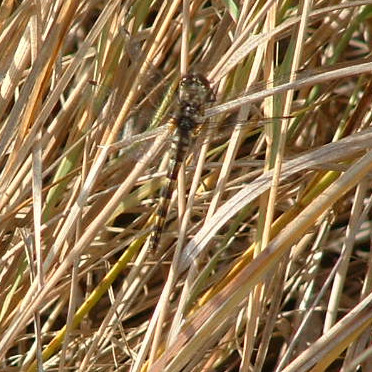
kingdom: Animalia
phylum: Arthropoda
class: Insecta
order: Odonata
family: Libellulidae
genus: Sympetrum
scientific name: Sympetrum danae
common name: Black darter
